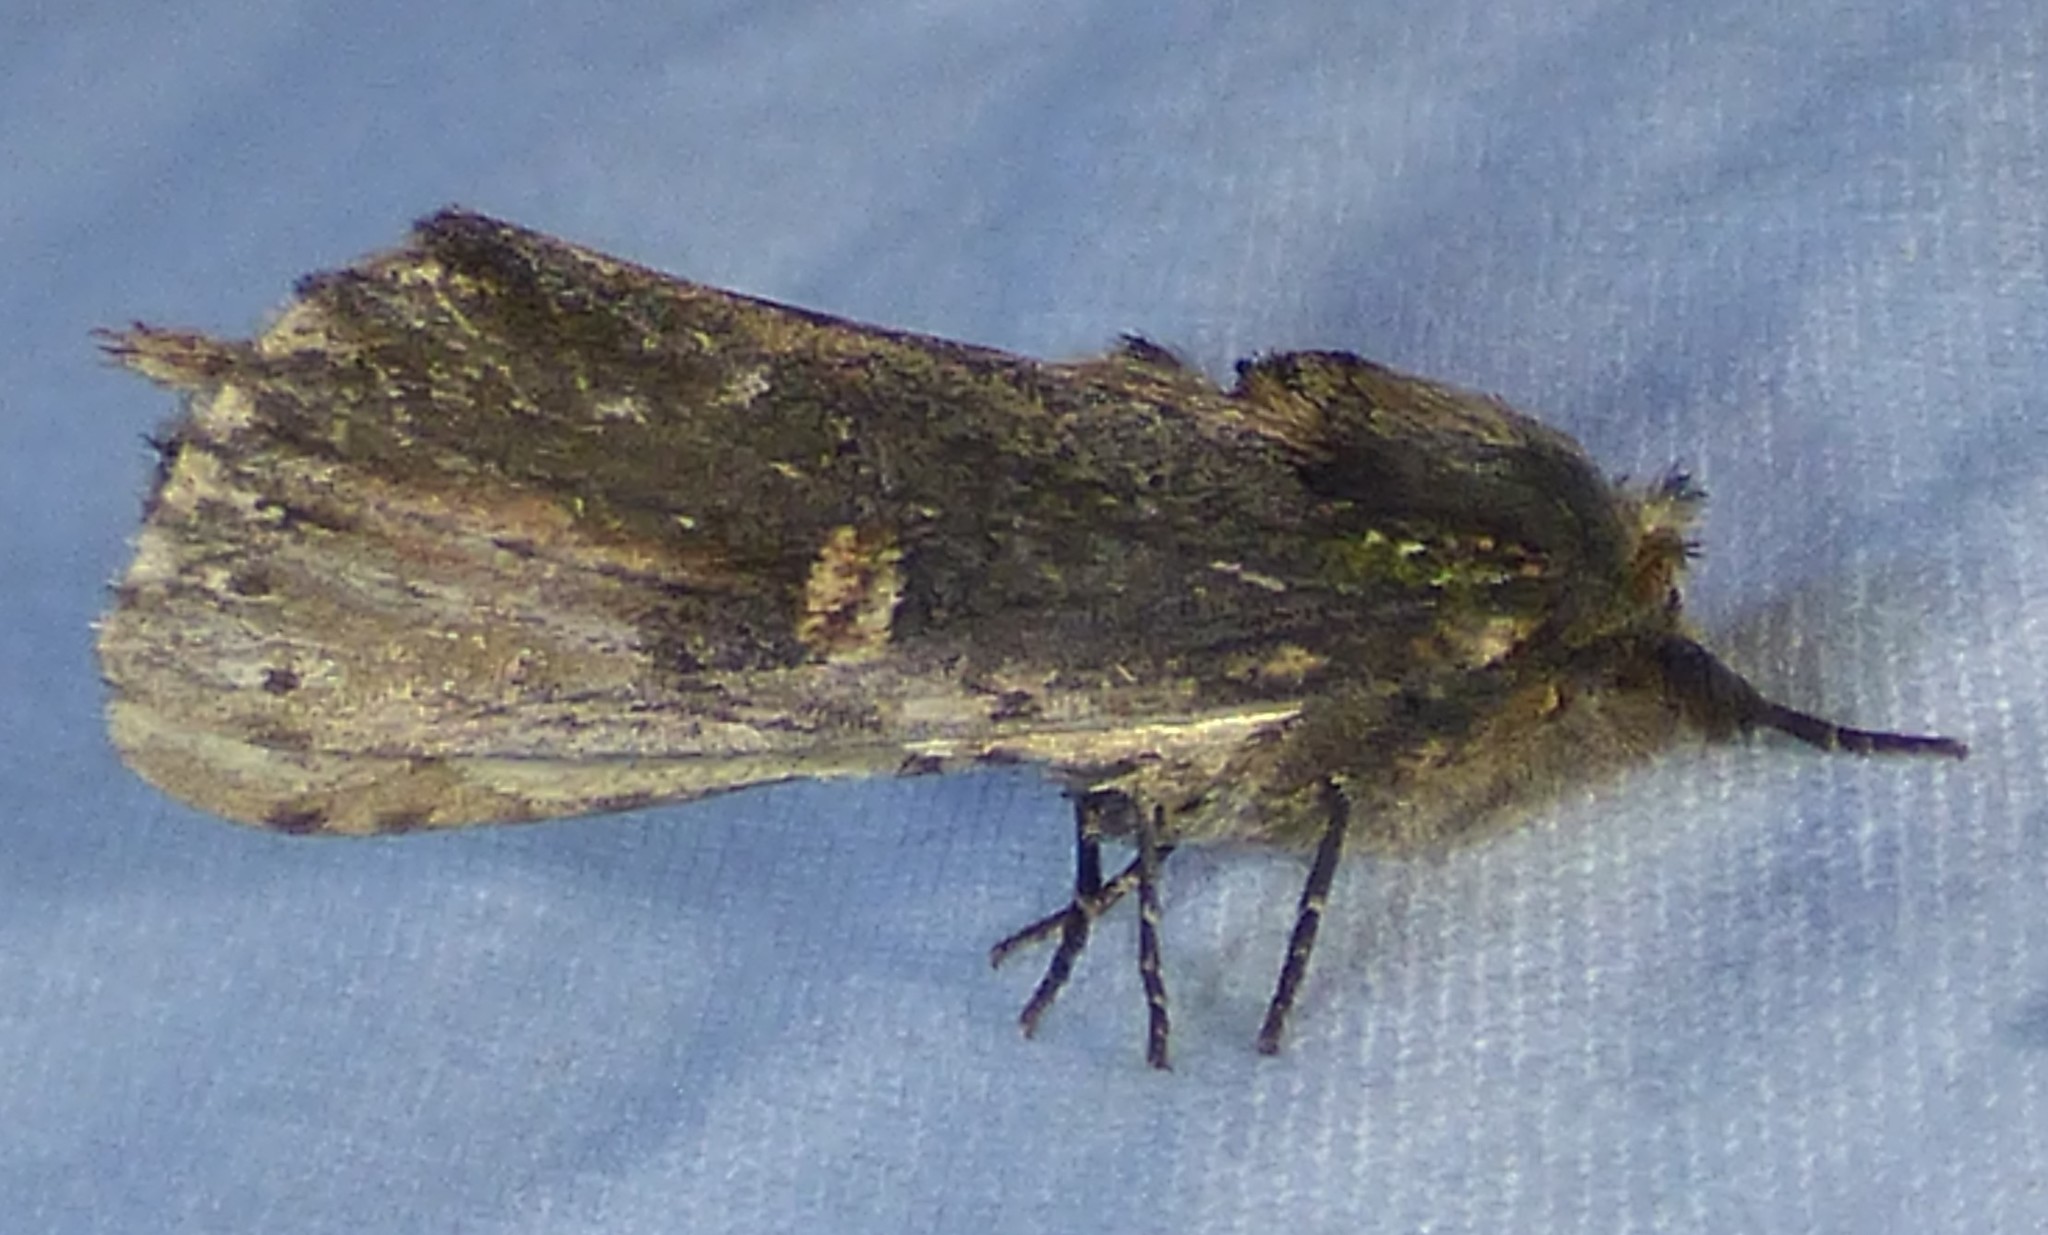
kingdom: Animalia
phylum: Arthropoda
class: Insecta
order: Lepidoptera
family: Notodontidae
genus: Schizura
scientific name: Schizura ipomaeae
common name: Morning-glory prominent
